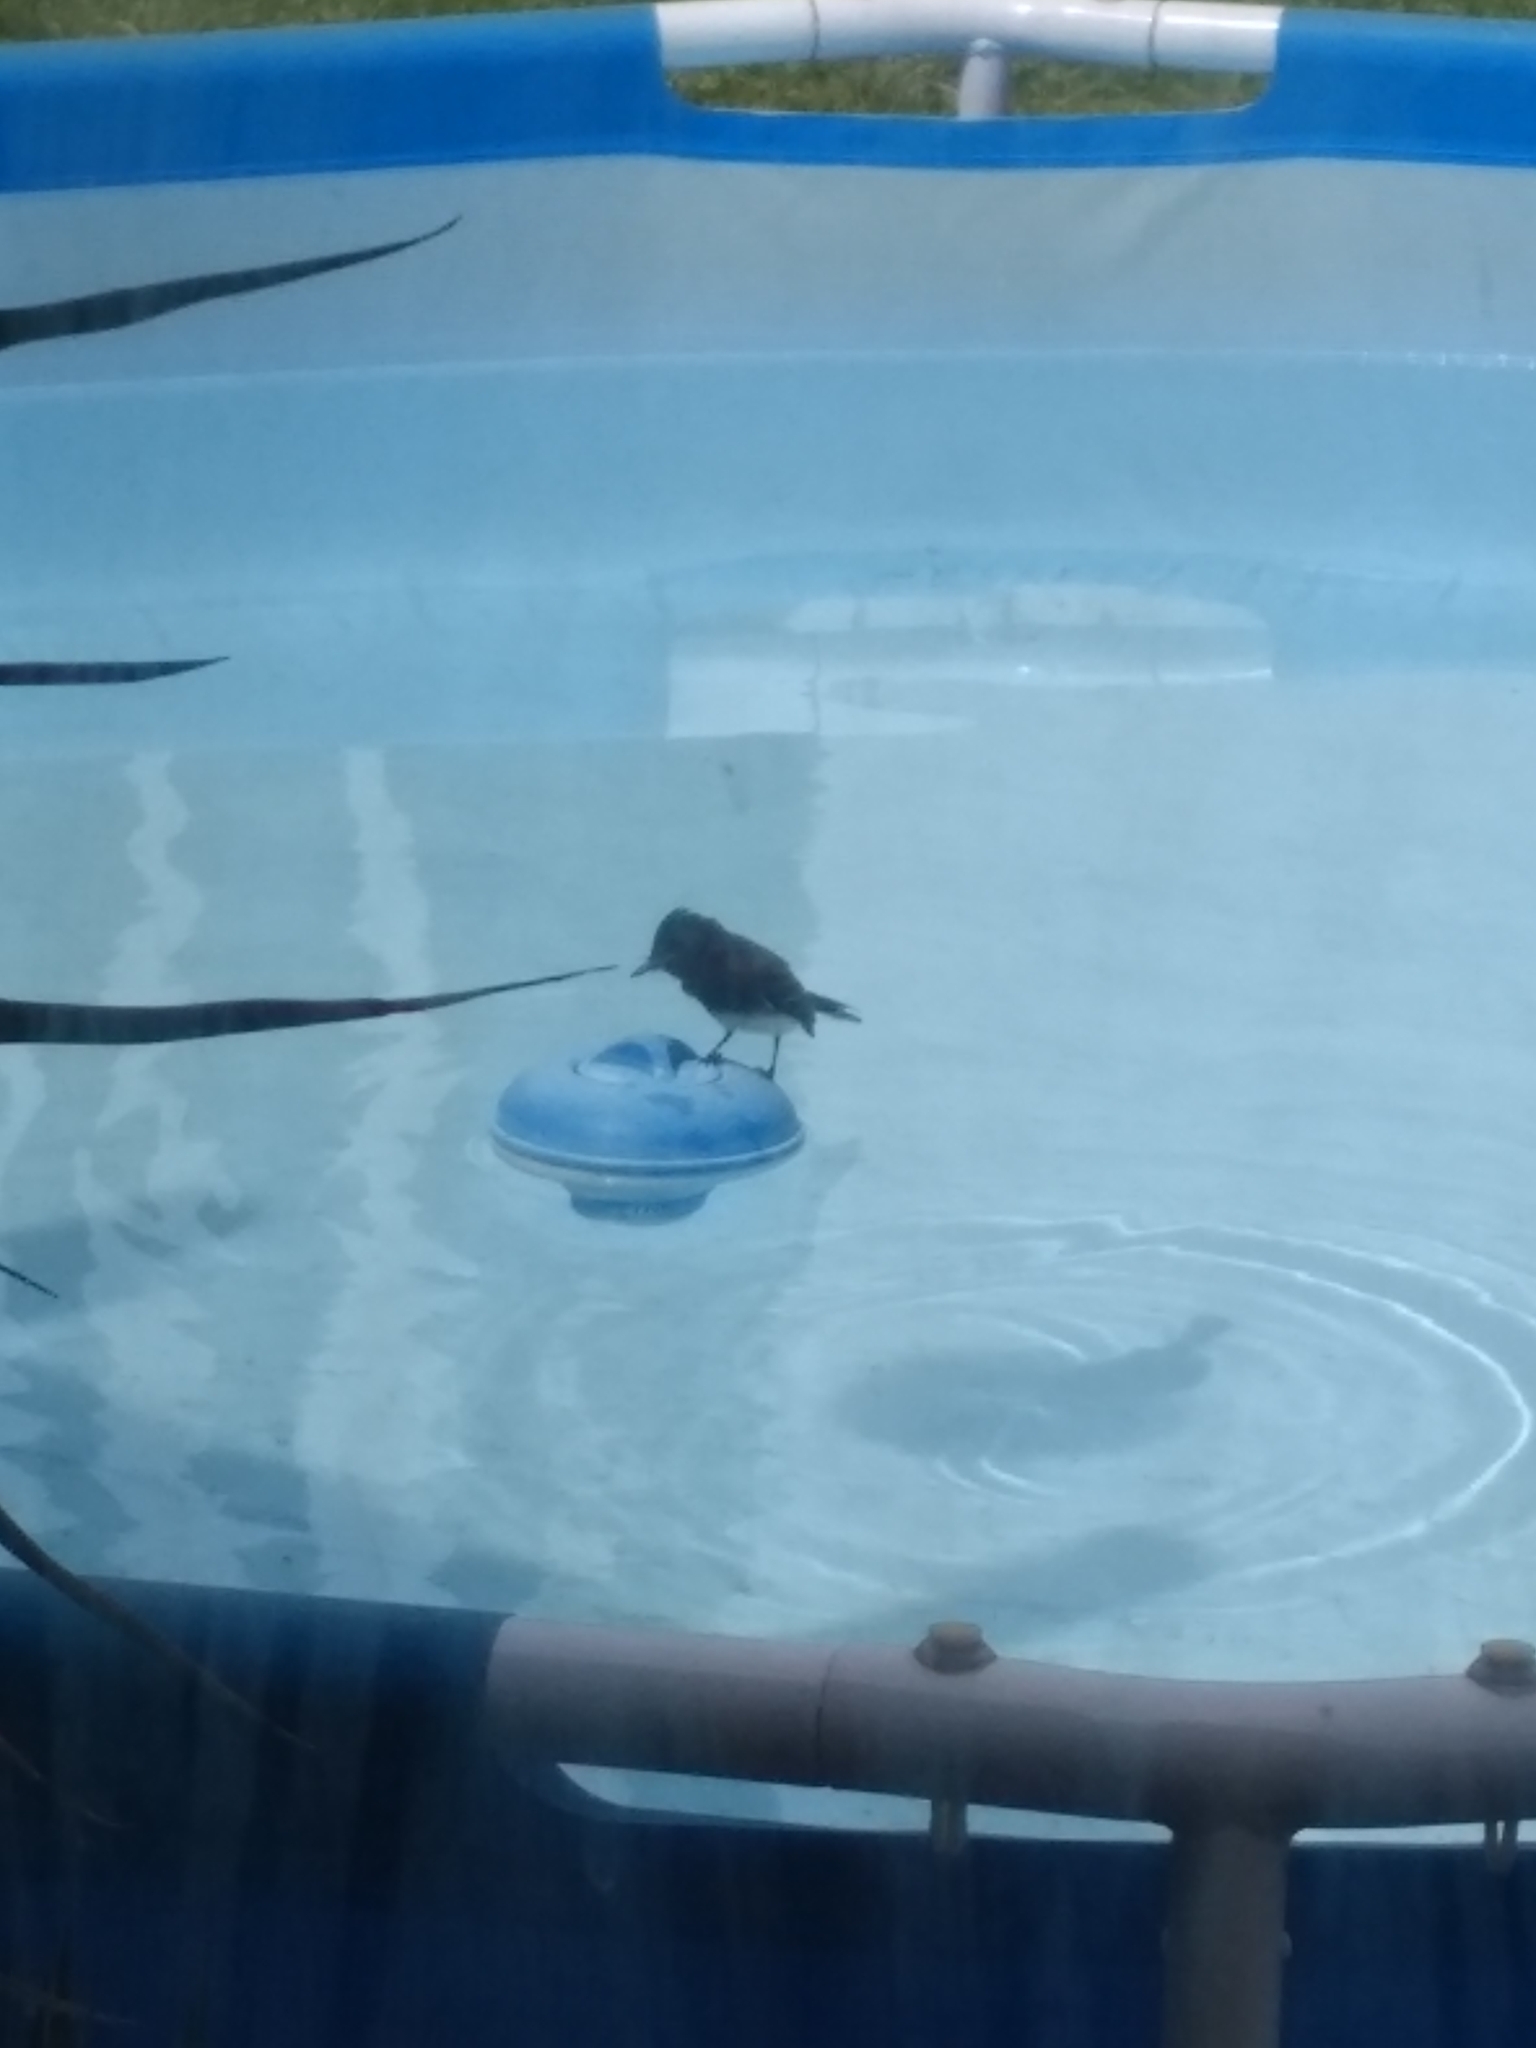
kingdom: Animalia
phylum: Chordata
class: Aves
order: Passeriformes
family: Tyrannidae
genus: Sayornis
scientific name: Sayornis nigricans
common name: Black phoebe
